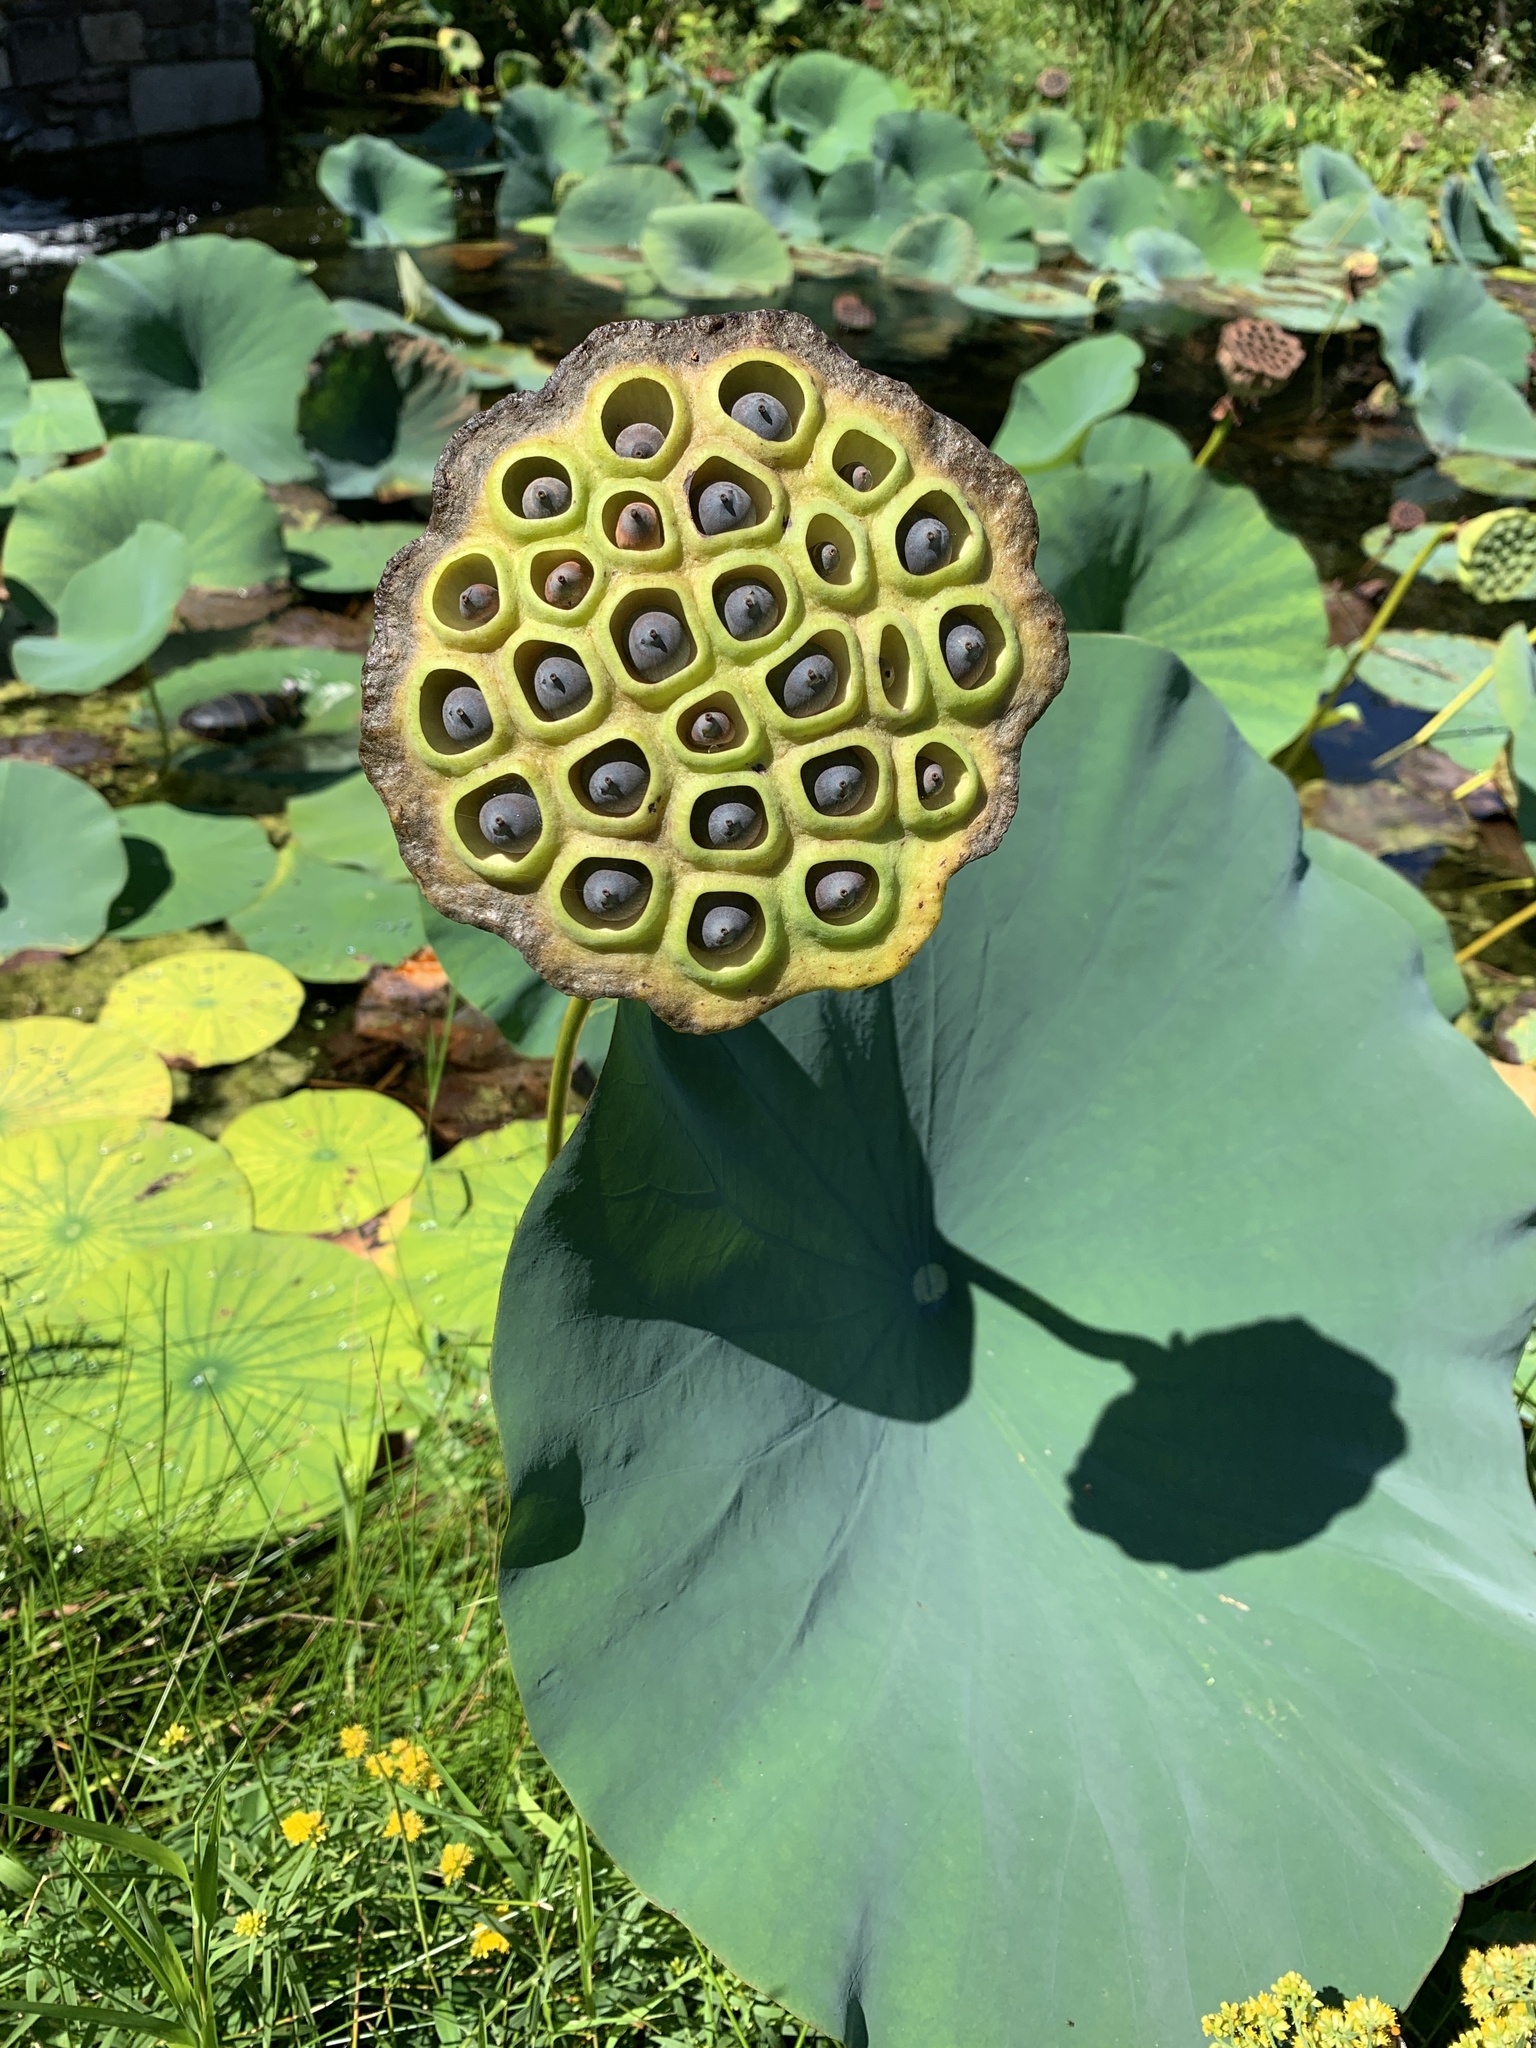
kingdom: Plantae
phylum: Tracheophyta
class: Magnoliopsida
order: Proteales
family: Nelumbonaceae
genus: Nelumbo
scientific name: Nelumbo lutea
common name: American lotus
